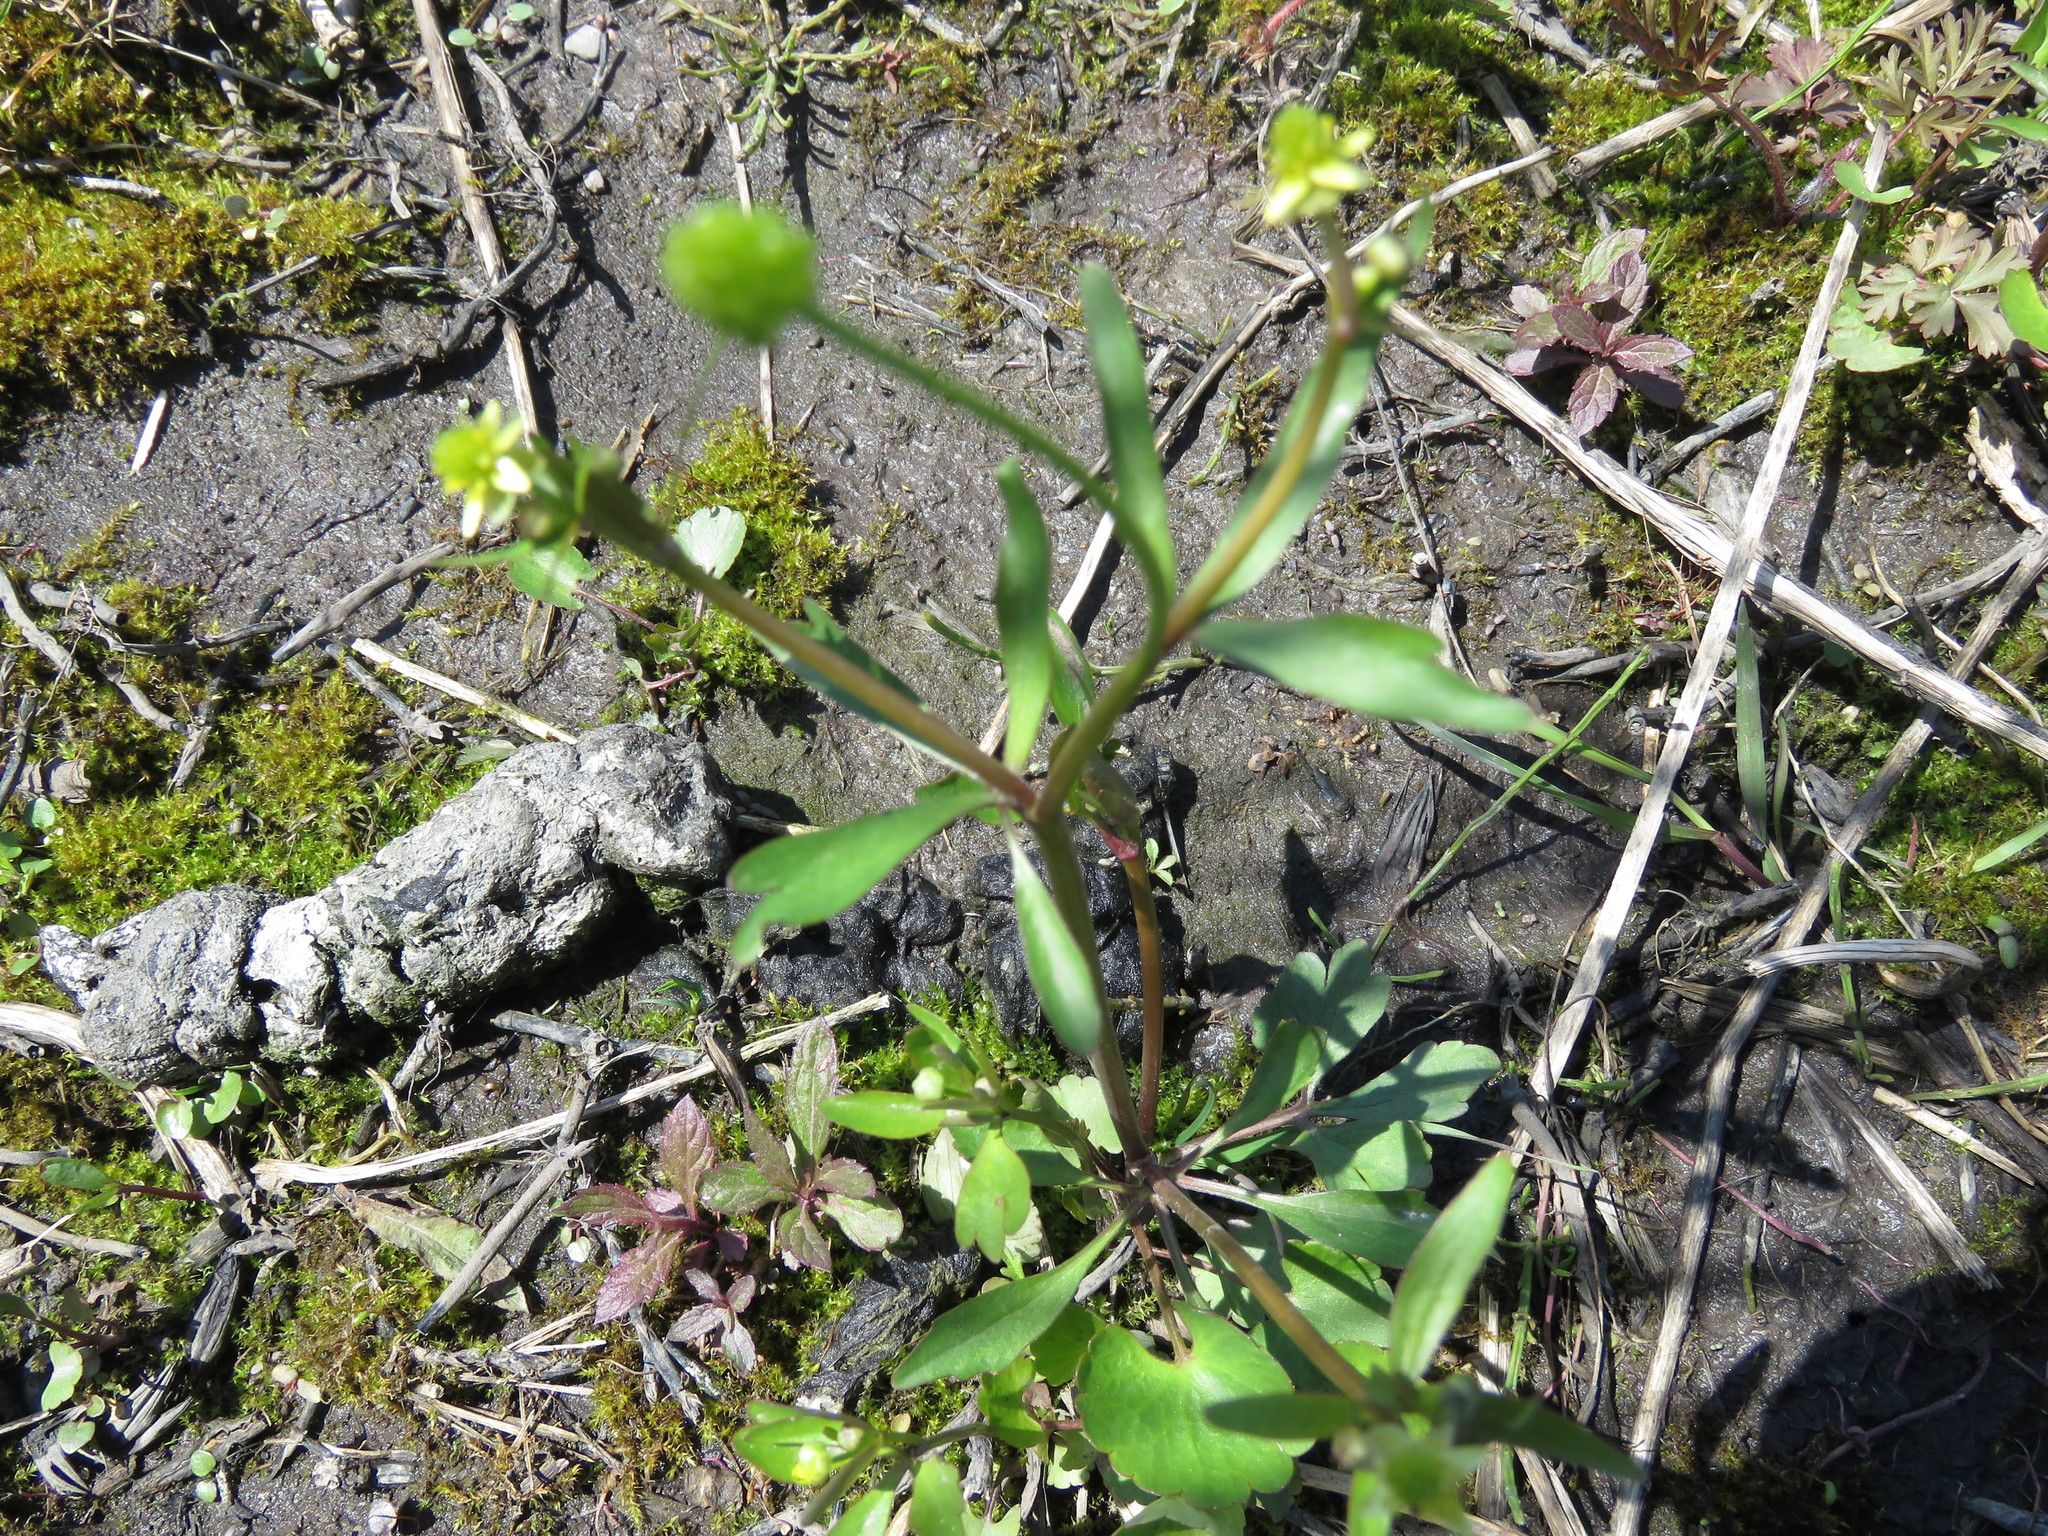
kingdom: Plantae
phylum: Tracheophyta
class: Magnoliopsida
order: Ranunculales
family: Ranunculaceae
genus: Ranunculus
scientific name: Ranunculus abortivus
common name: Early wood buttercup
